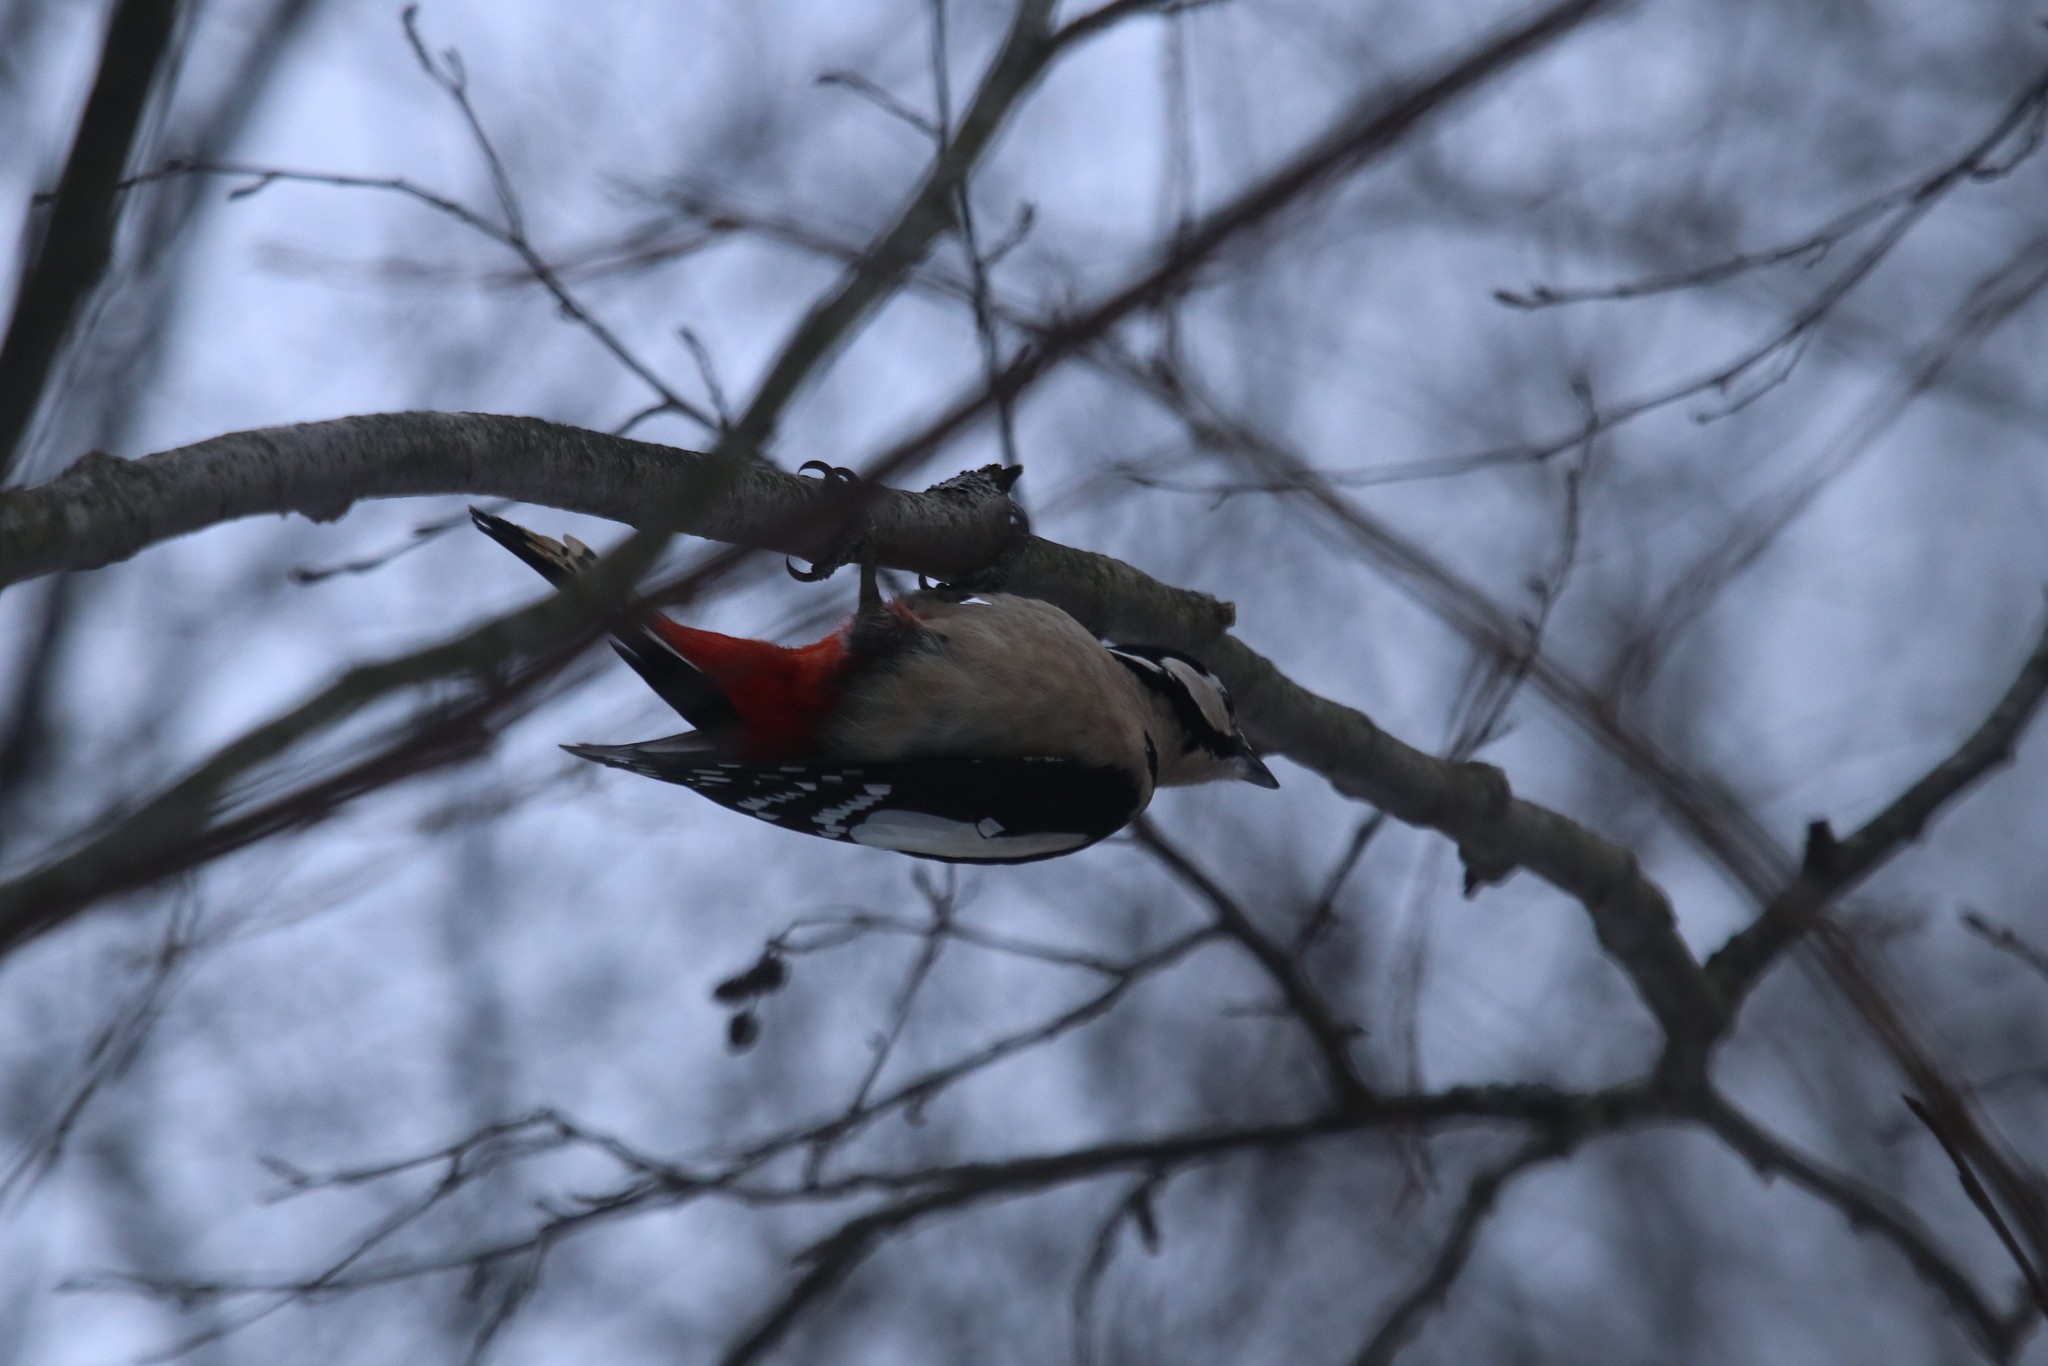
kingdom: Animalia
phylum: Chordata
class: Aves
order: Piciformes
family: Picidae
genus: Dendrocopos
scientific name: Dendrocopos major
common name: Great spotted woodpecker
